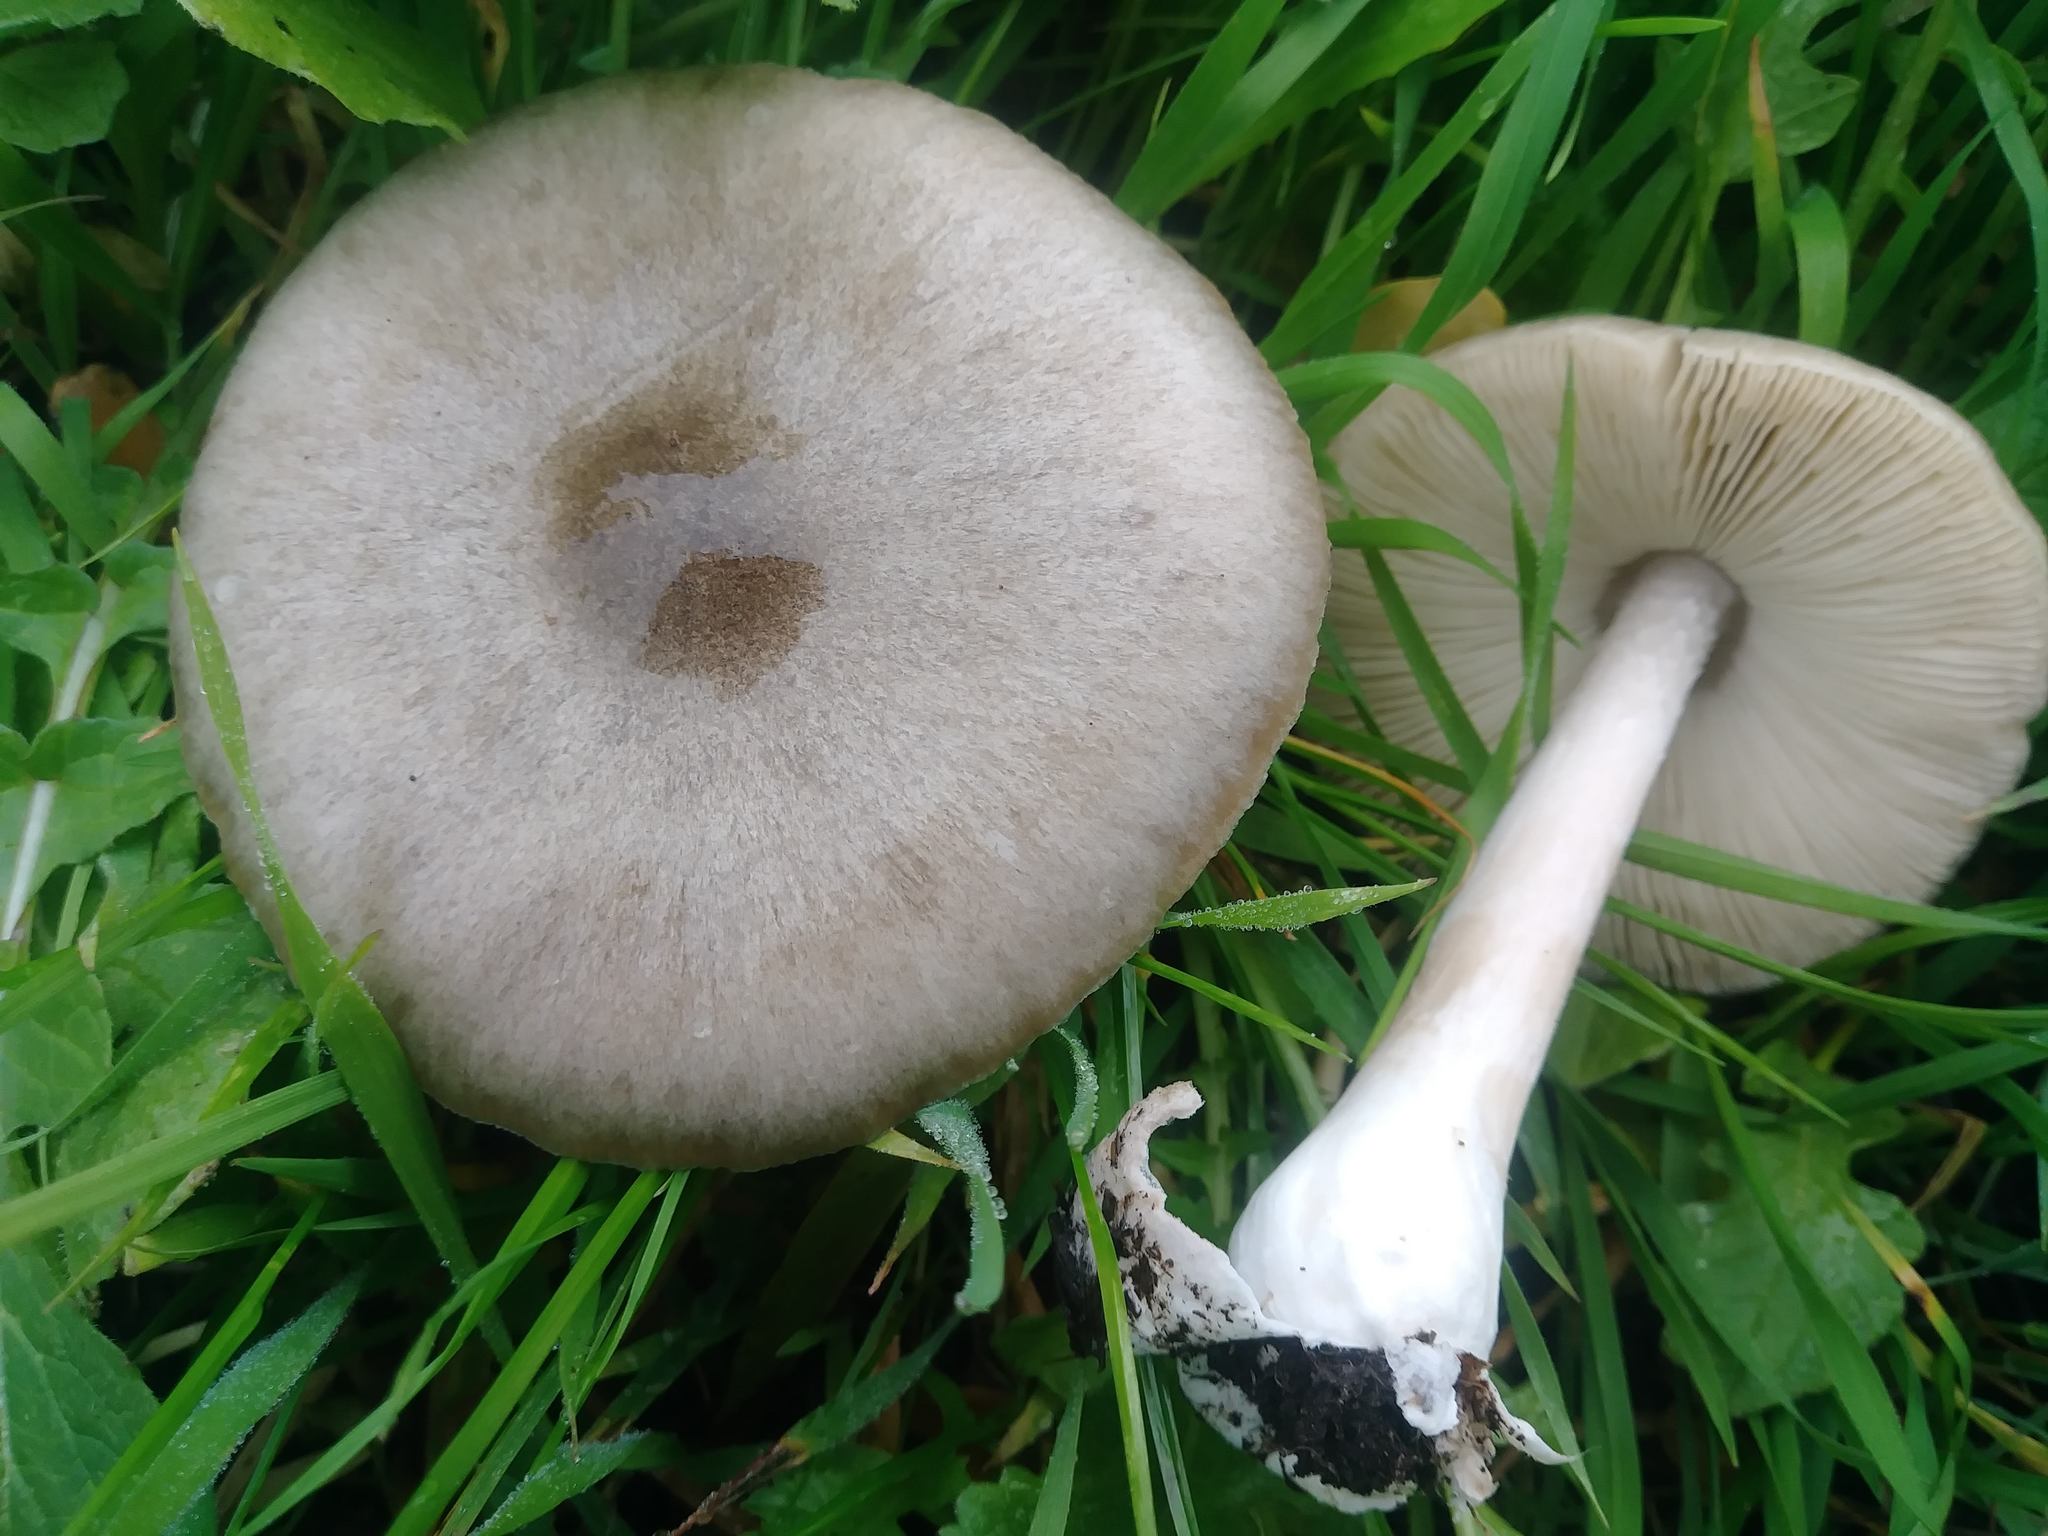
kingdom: Fungi
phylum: Basidiomycota
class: Agaricomycetes
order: Agaricales
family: Pluteaceae
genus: Volvopluteus
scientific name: Volvopluteus gloiocephalus
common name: Stubble rosegill
